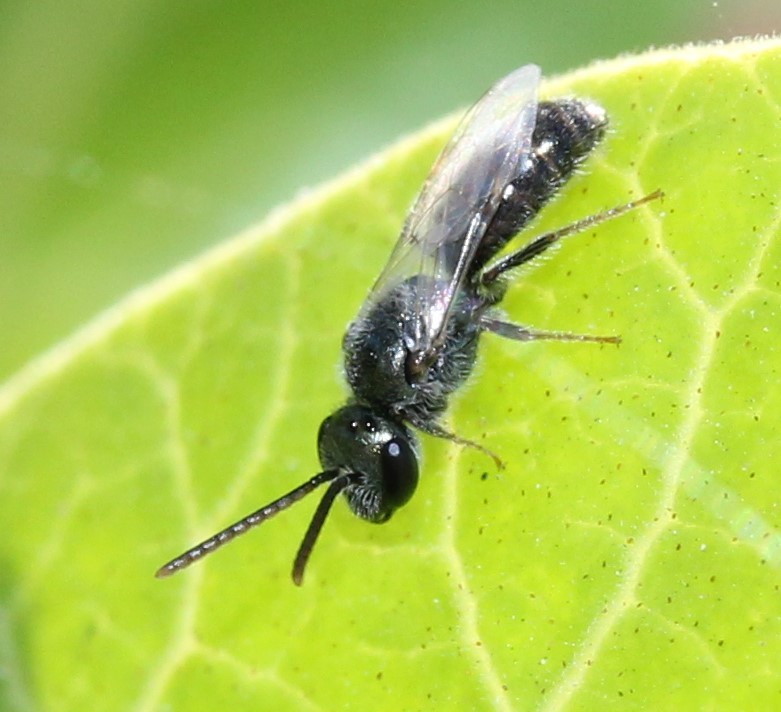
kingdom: Animalia
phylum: Arthropoda
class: Insecta
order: Hymenoptera
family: Halictidae
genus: Dialictus
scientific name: Dialictus
